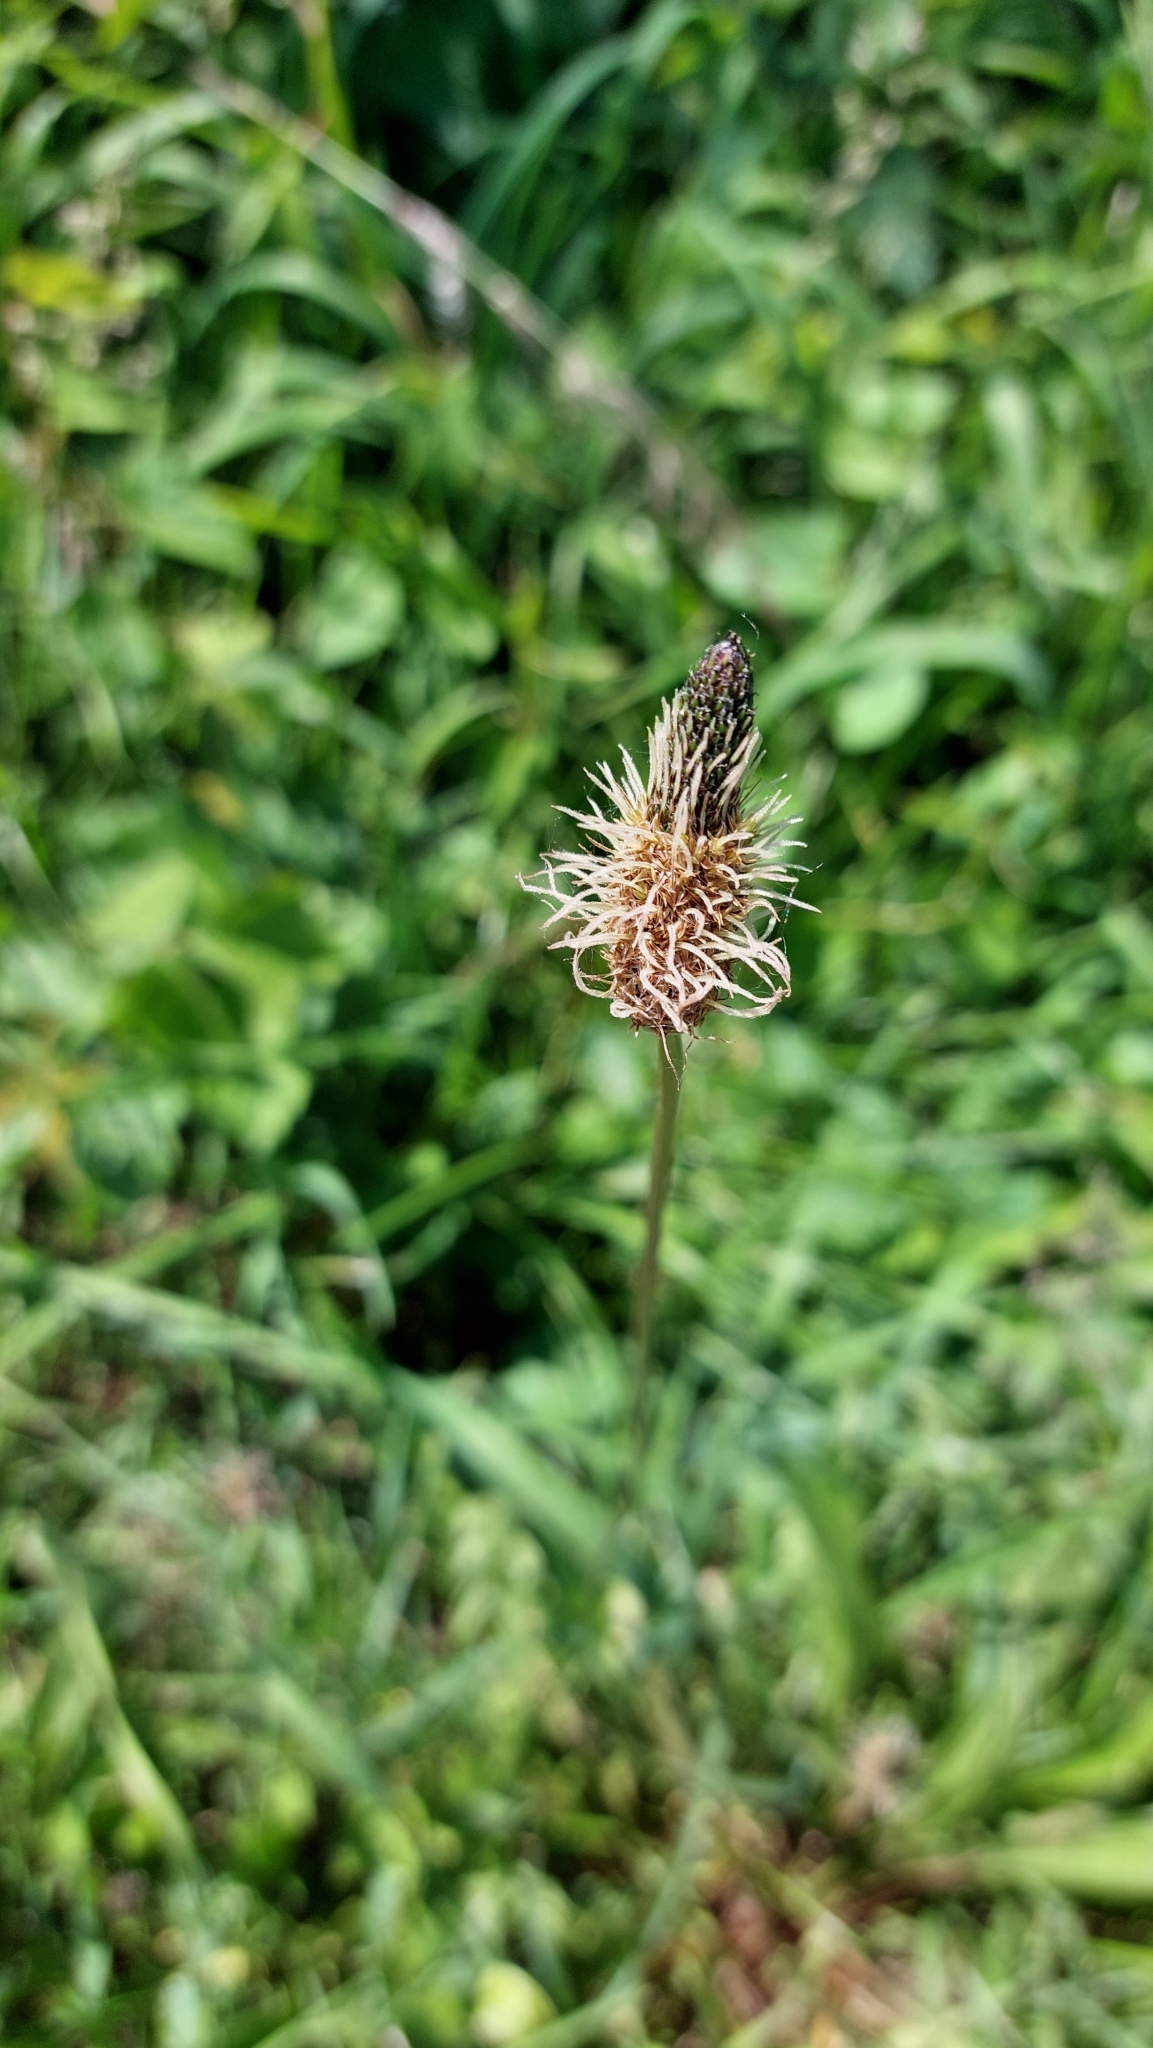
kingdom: Plantae
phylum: Tracheophyta
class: Magnoliopsida
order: Lamiales
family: Plantaginaceae
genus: Plantago
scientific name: Plantago lanceolata
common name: Ribwort plantain
